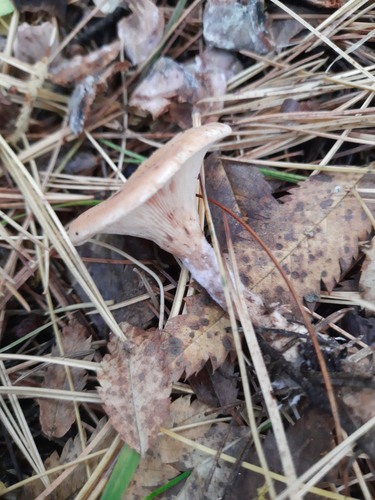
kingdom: Fungi
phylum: Basidiomycota
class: Agaricomycetes
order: Agaricales
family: Tricholomataceae
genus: Infundibulicybe
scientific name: Infundibulicybe gibba
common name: Common funnel
